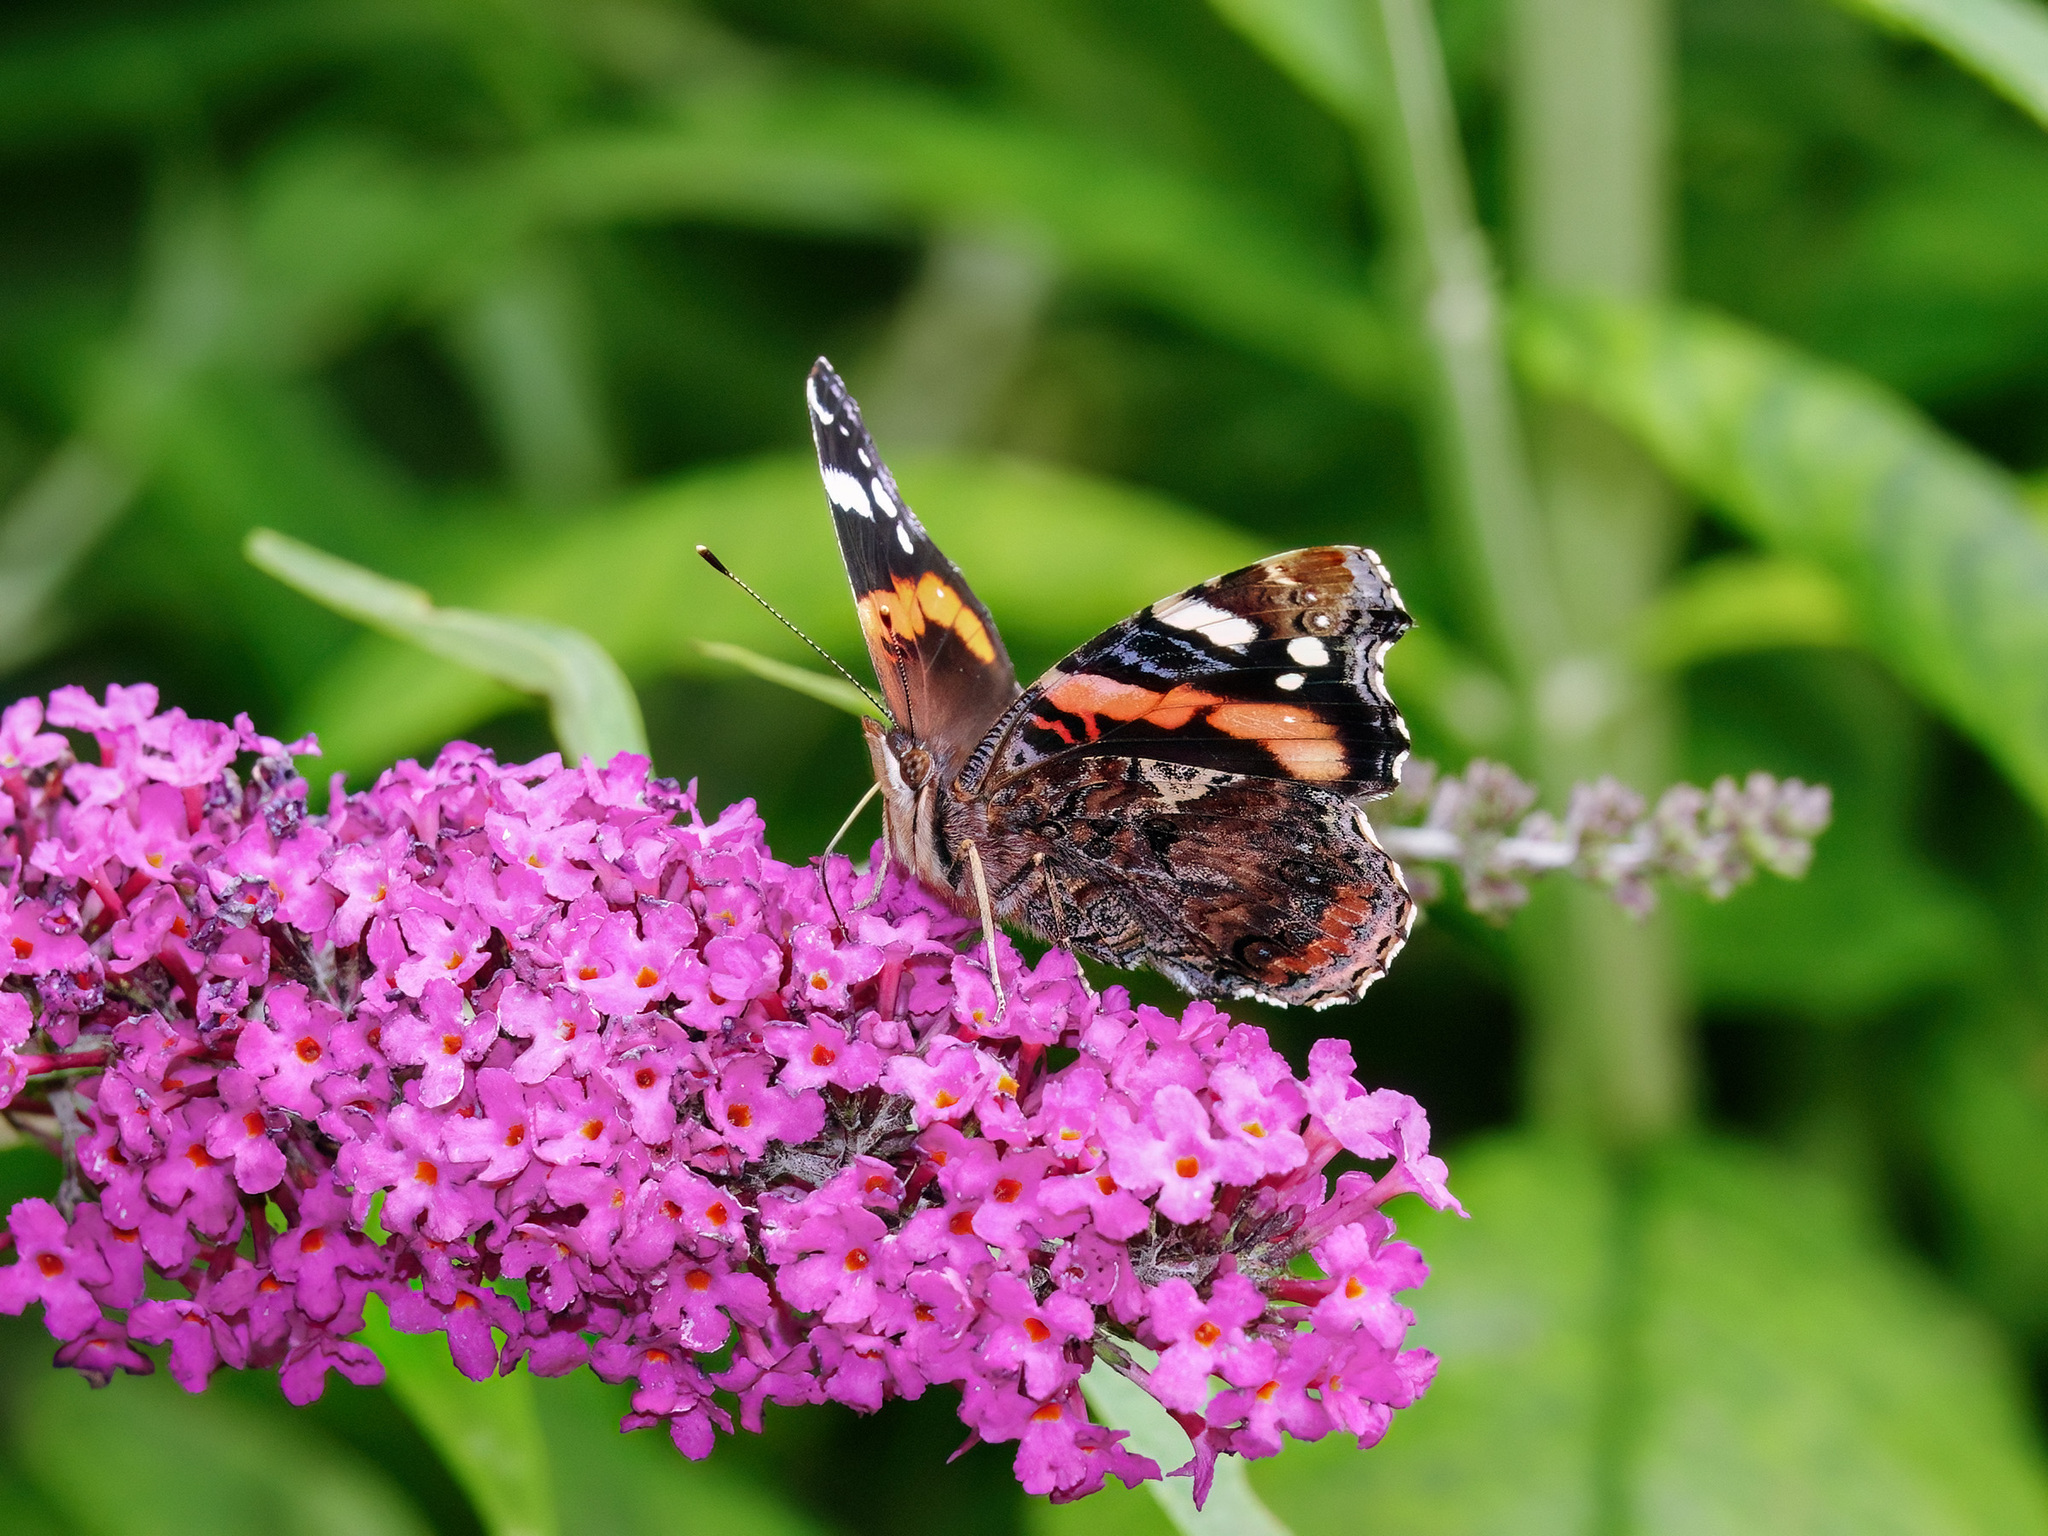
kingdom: Animalia
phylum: Arthropoda
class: Insecta
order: Lepidoptera
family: Nymphalidae
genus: Vanessa
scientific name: Vanessa atalanta
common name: Red admiral
